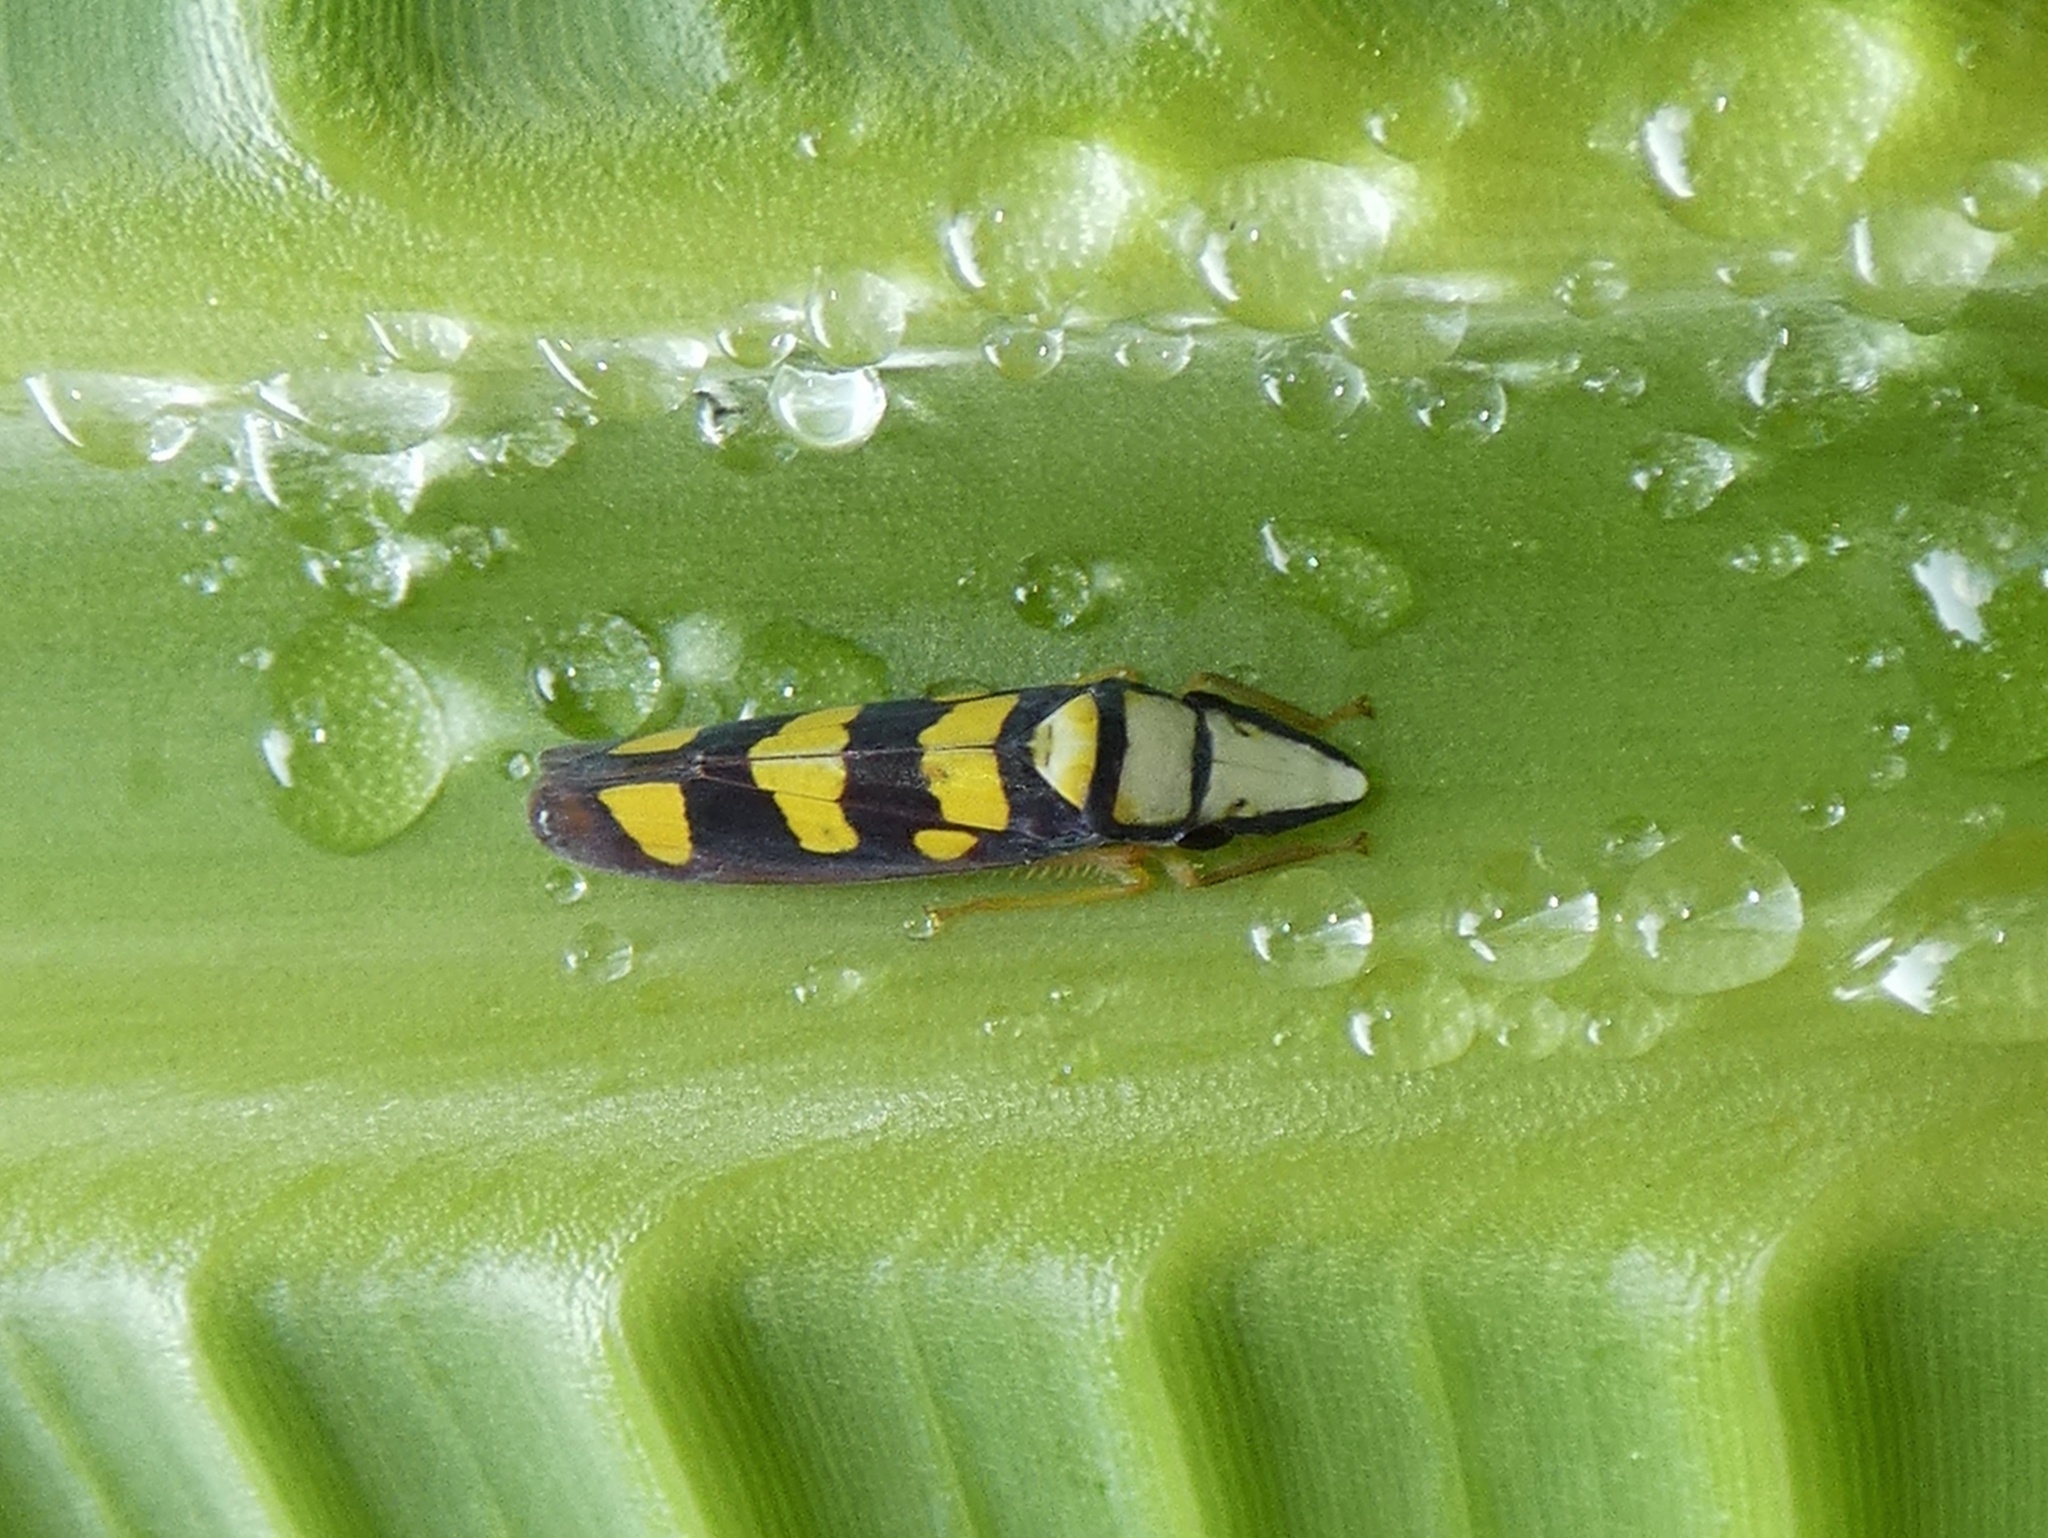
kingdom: Animalia
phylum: Arthropoda
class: Insecta
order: Hemiptera
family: Cicadellidae
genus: Platygonia
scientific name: Platygonia spatulata
